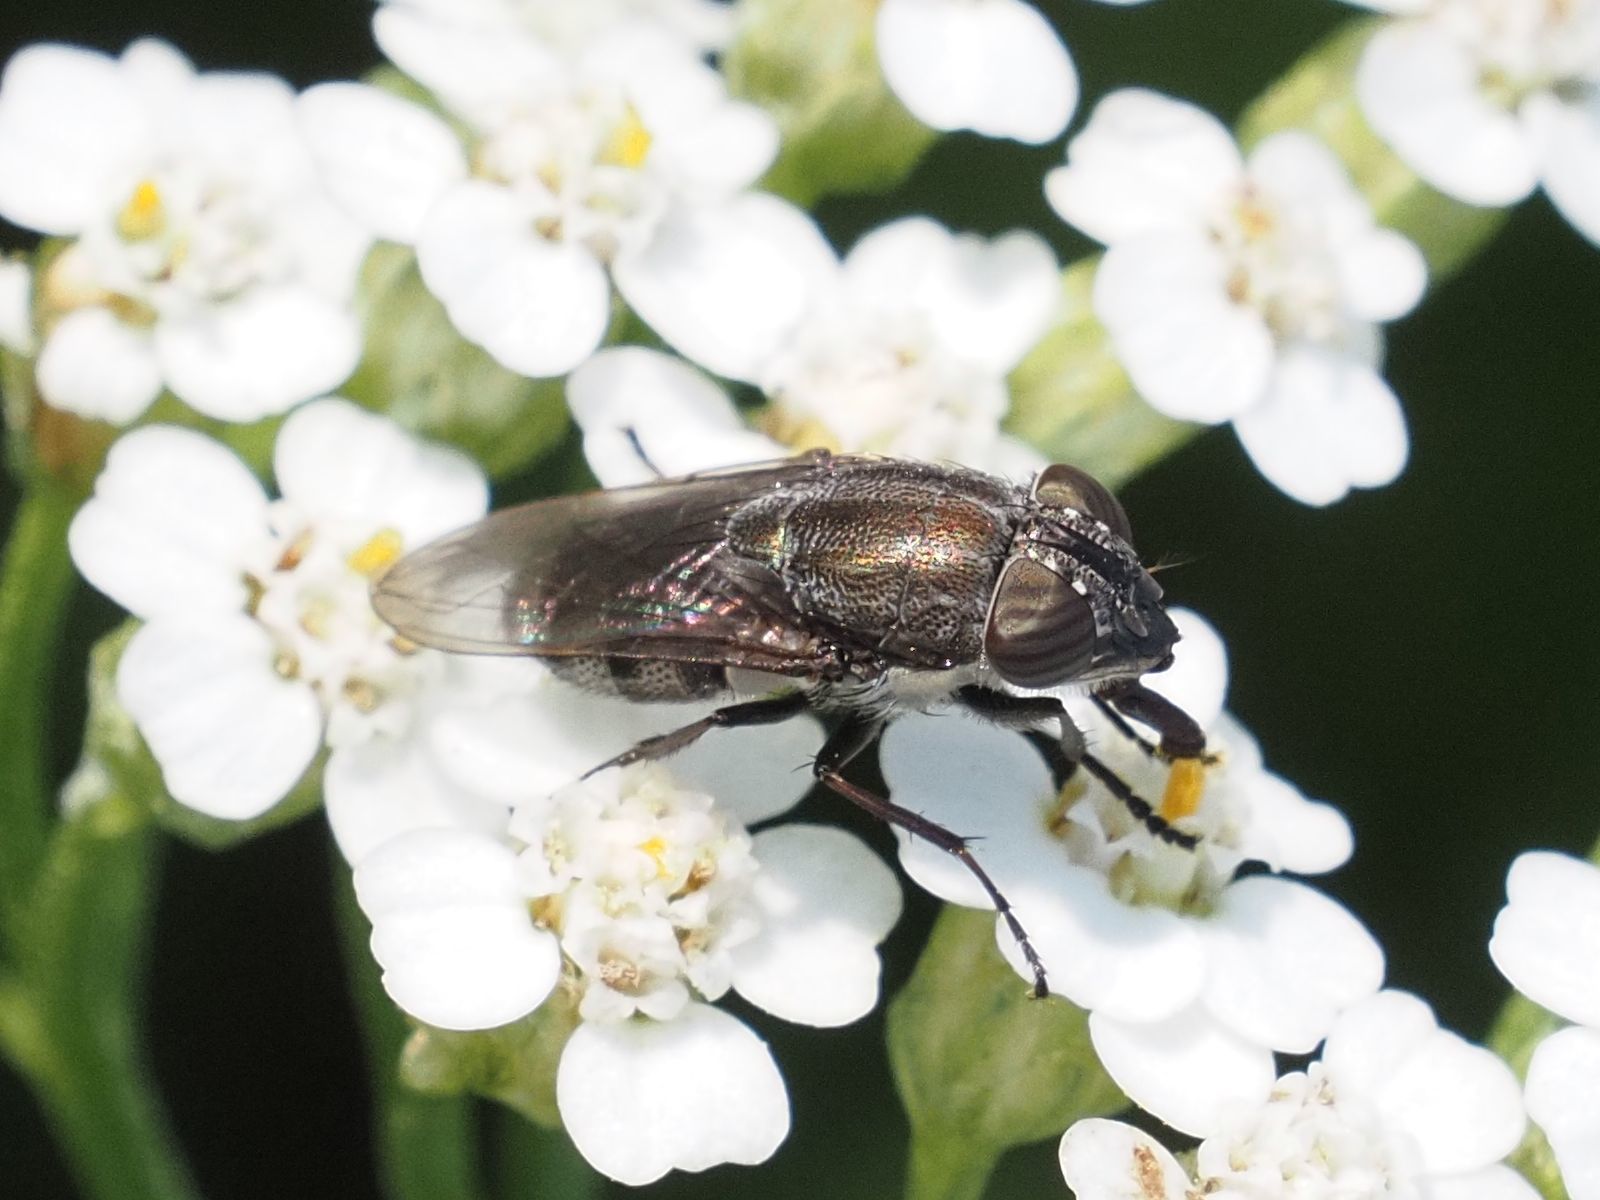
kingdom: Animalia
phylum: Arthropoda
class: Insecta
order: Diptera
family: Calliphoridae
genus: Stomorhina
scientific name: Stomorhina lunata
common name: Locust blowfly
